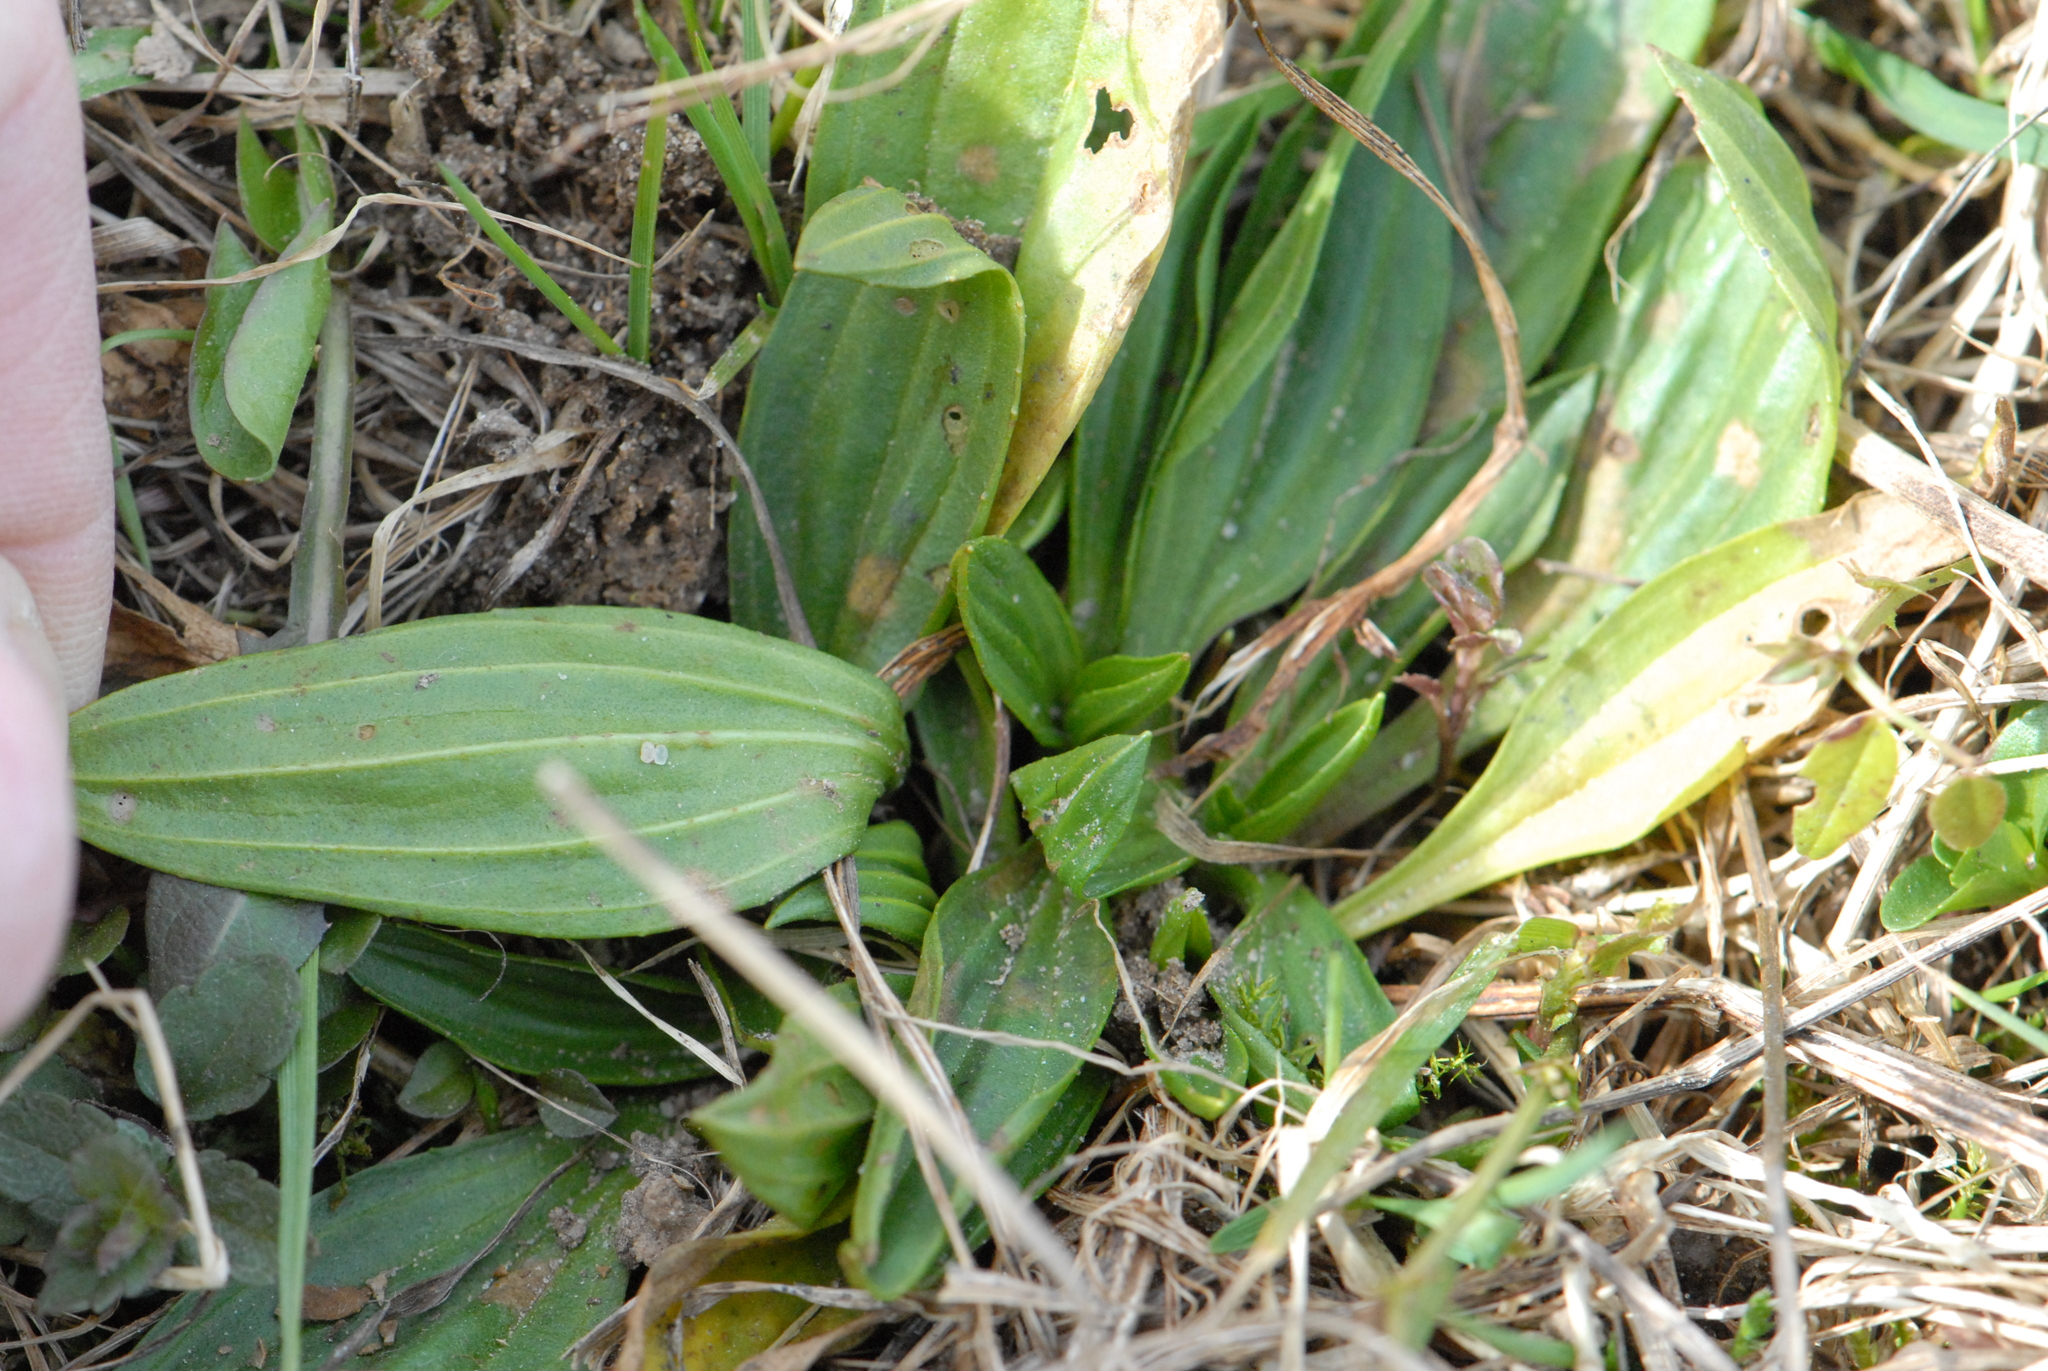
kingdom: Plantae
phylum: Tracheophyta
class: Magnoliopsida
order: Lamiales
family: Plantaginaceae
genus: Plantago
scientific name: Plantago lanceolata
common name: Ribwort plantain
